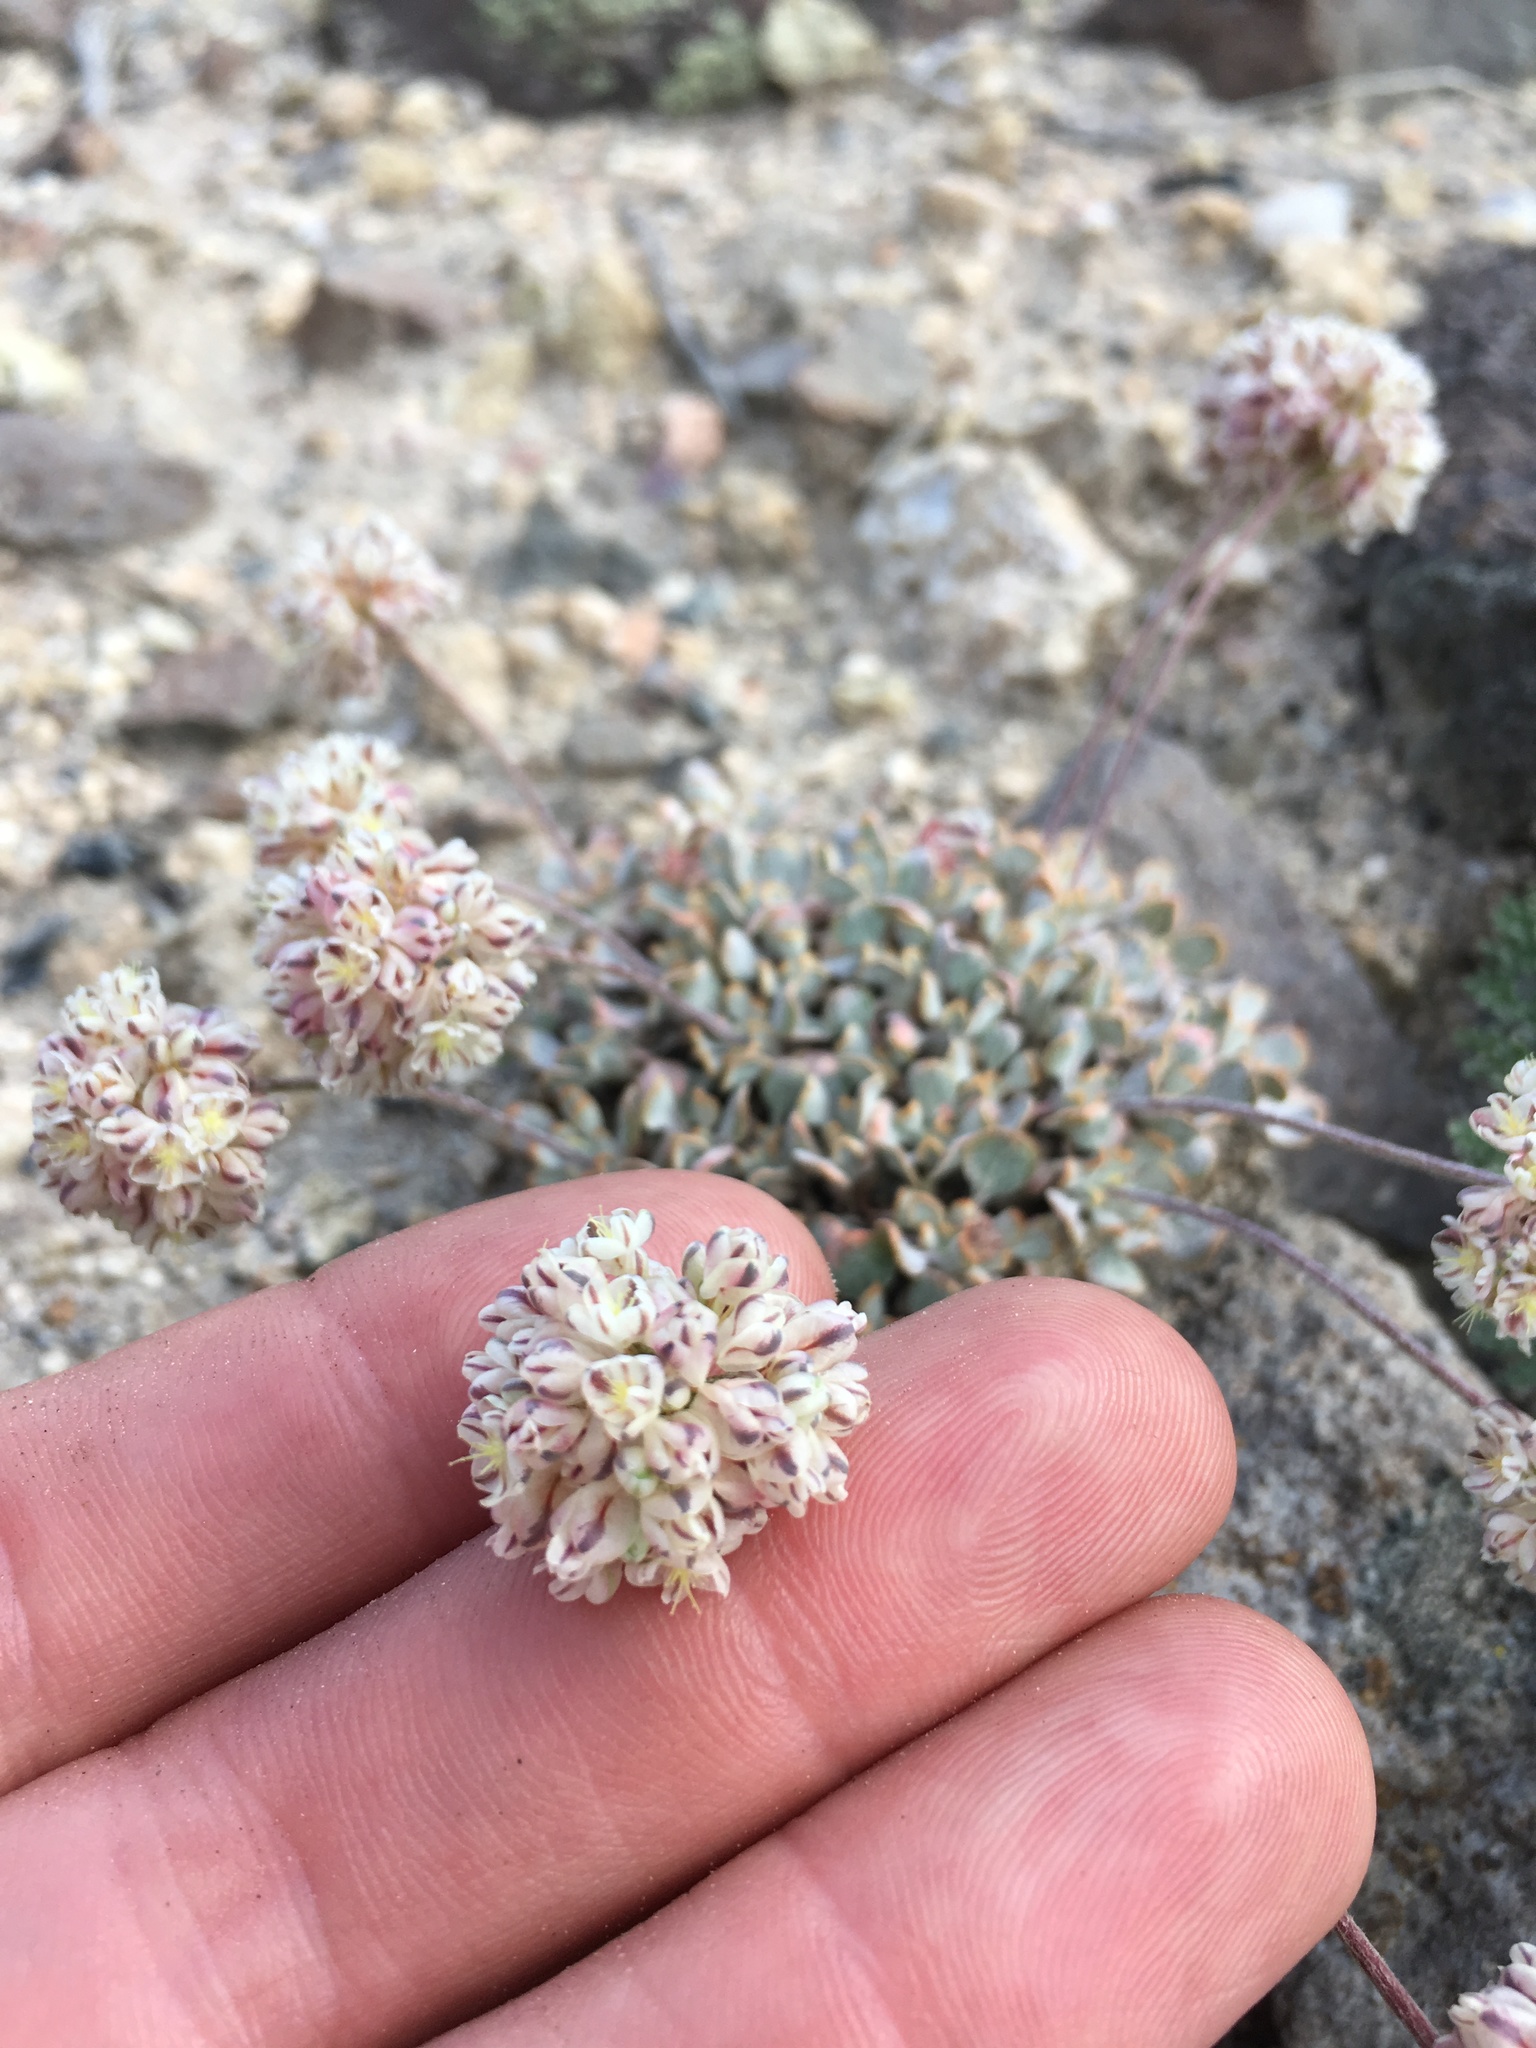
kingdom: Plantae
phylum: Tracheophyta
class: Magnoliopsida
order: Caryophyllales
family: Polygonaceae
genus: Eriogonum
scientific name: Eriogonum ovalifolium
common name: Cushion buckwheat
